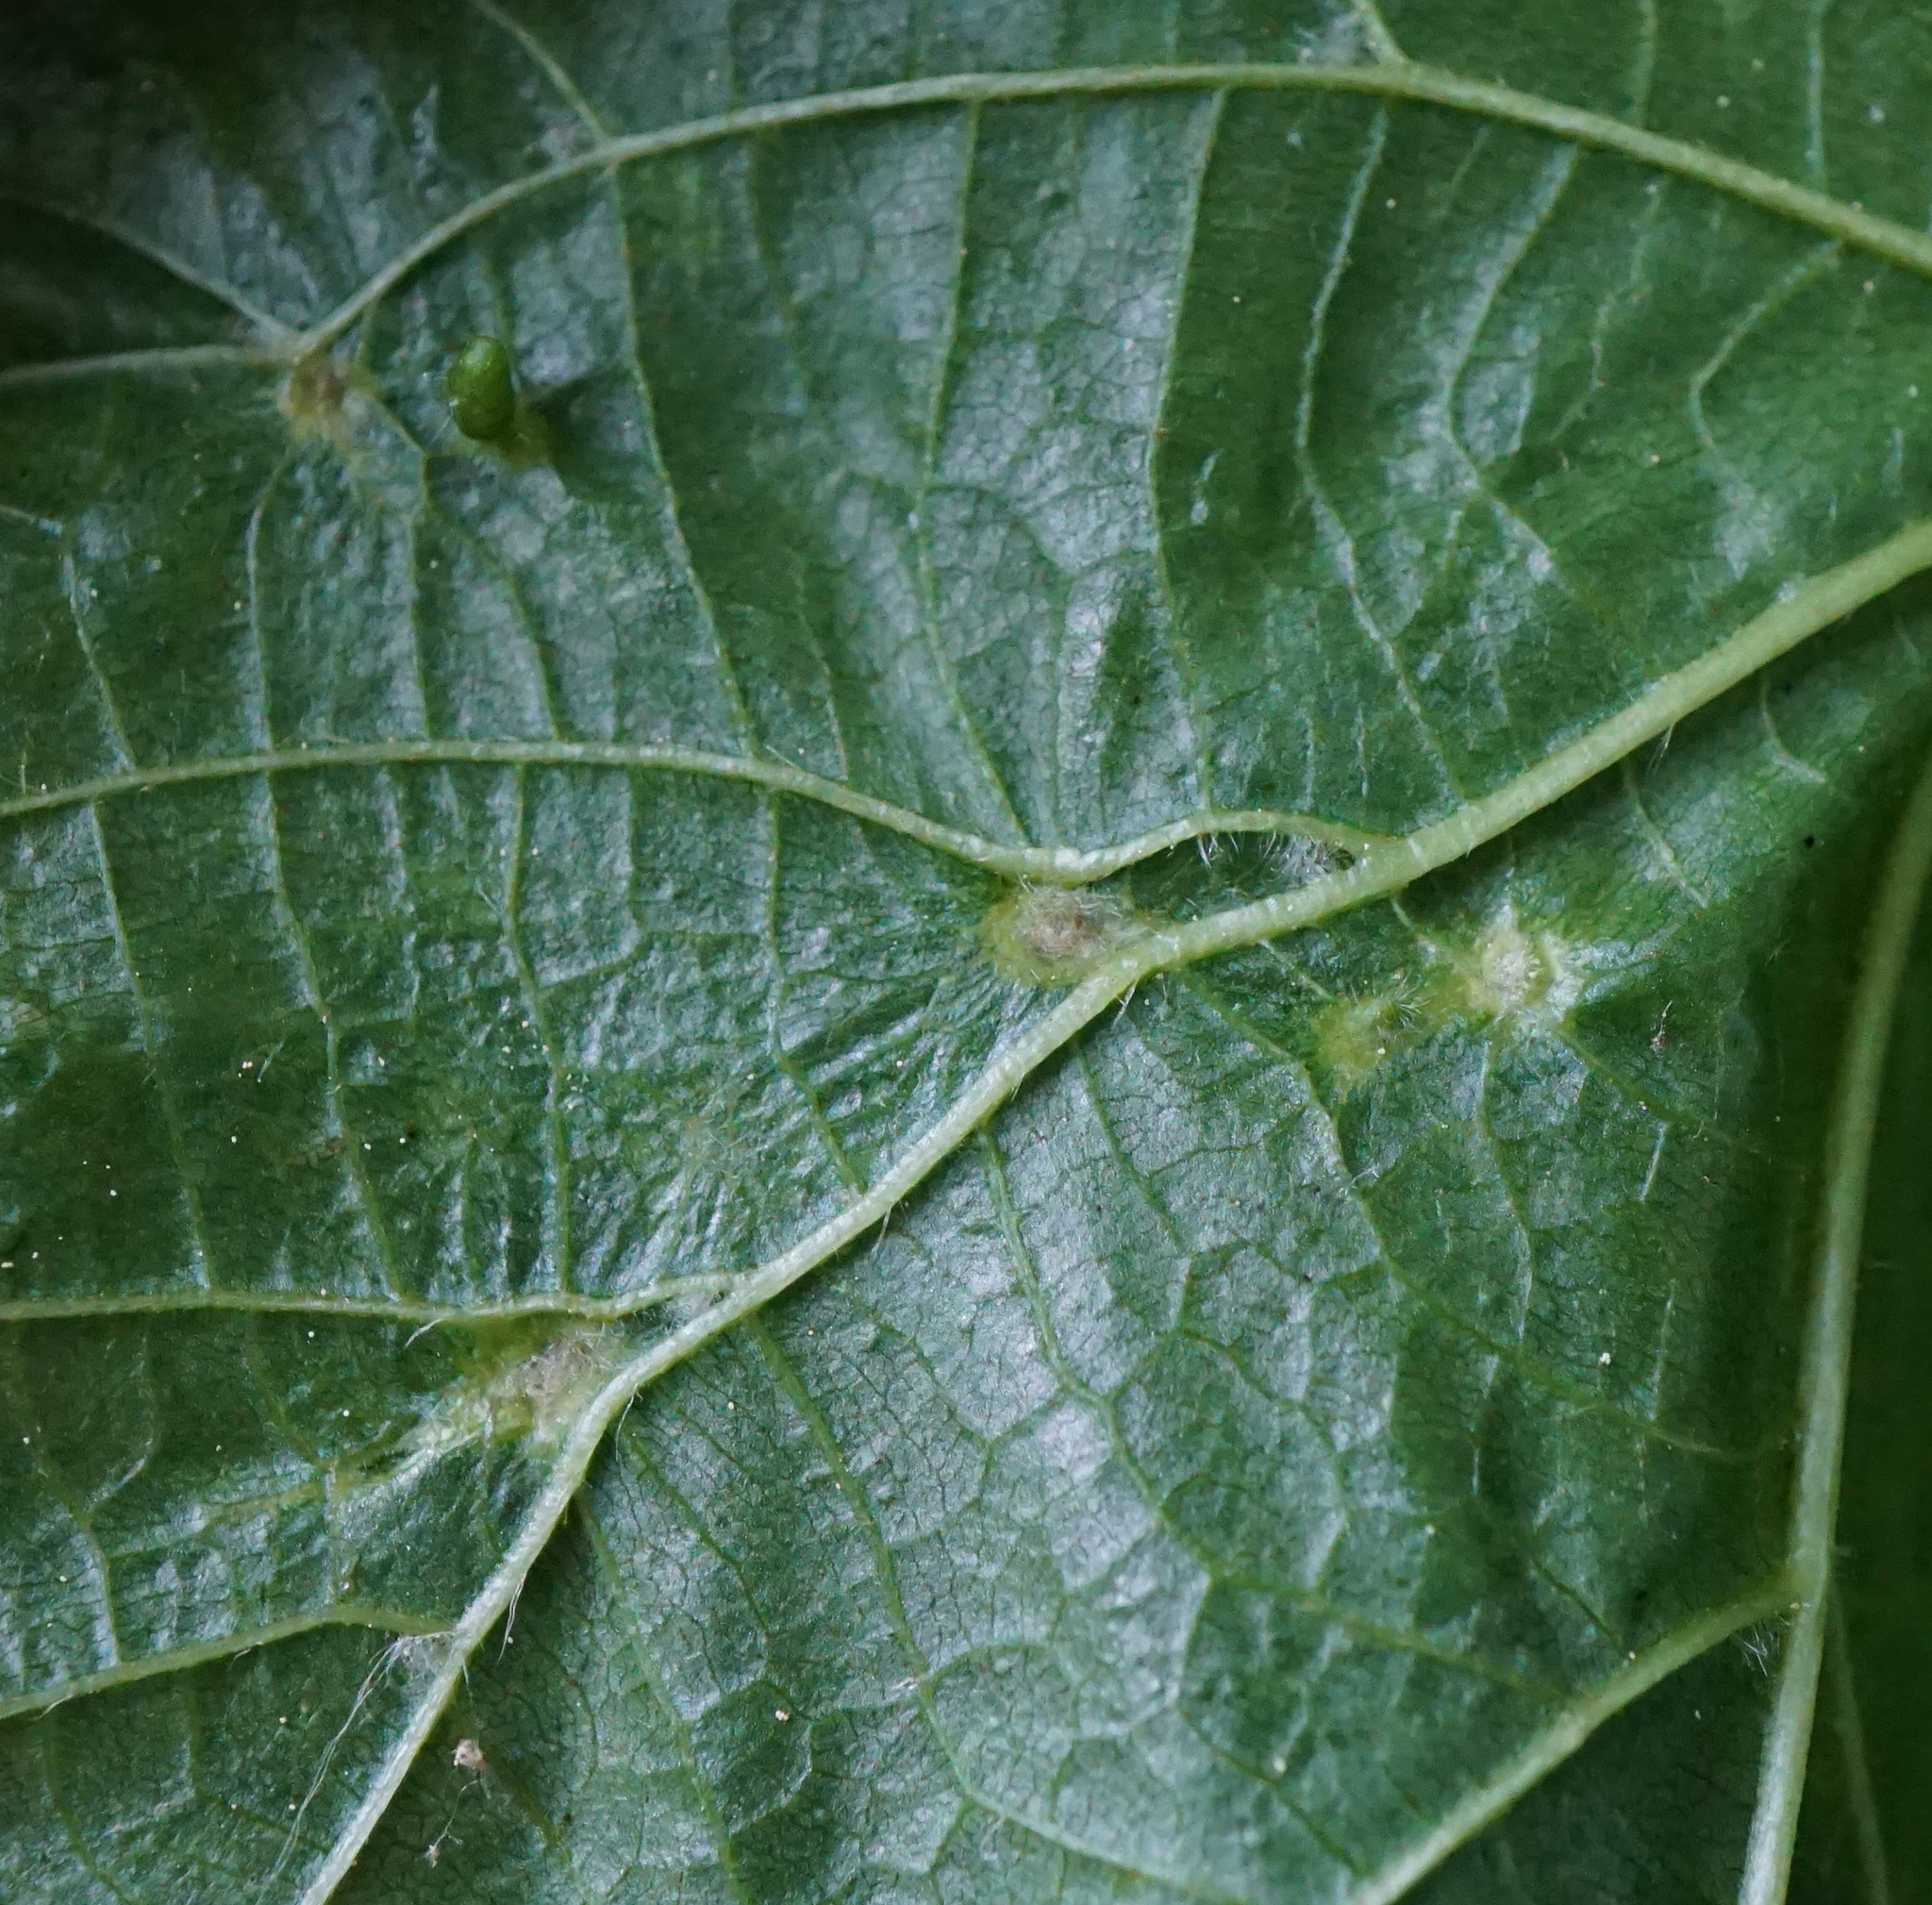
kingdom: Animalia
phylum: Arthropoda
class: Arachnida
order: Trombidiformes
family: Eriophyidae
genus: Eriophyes
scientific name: Eriophyes tiliae
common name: Red nail gall mite
